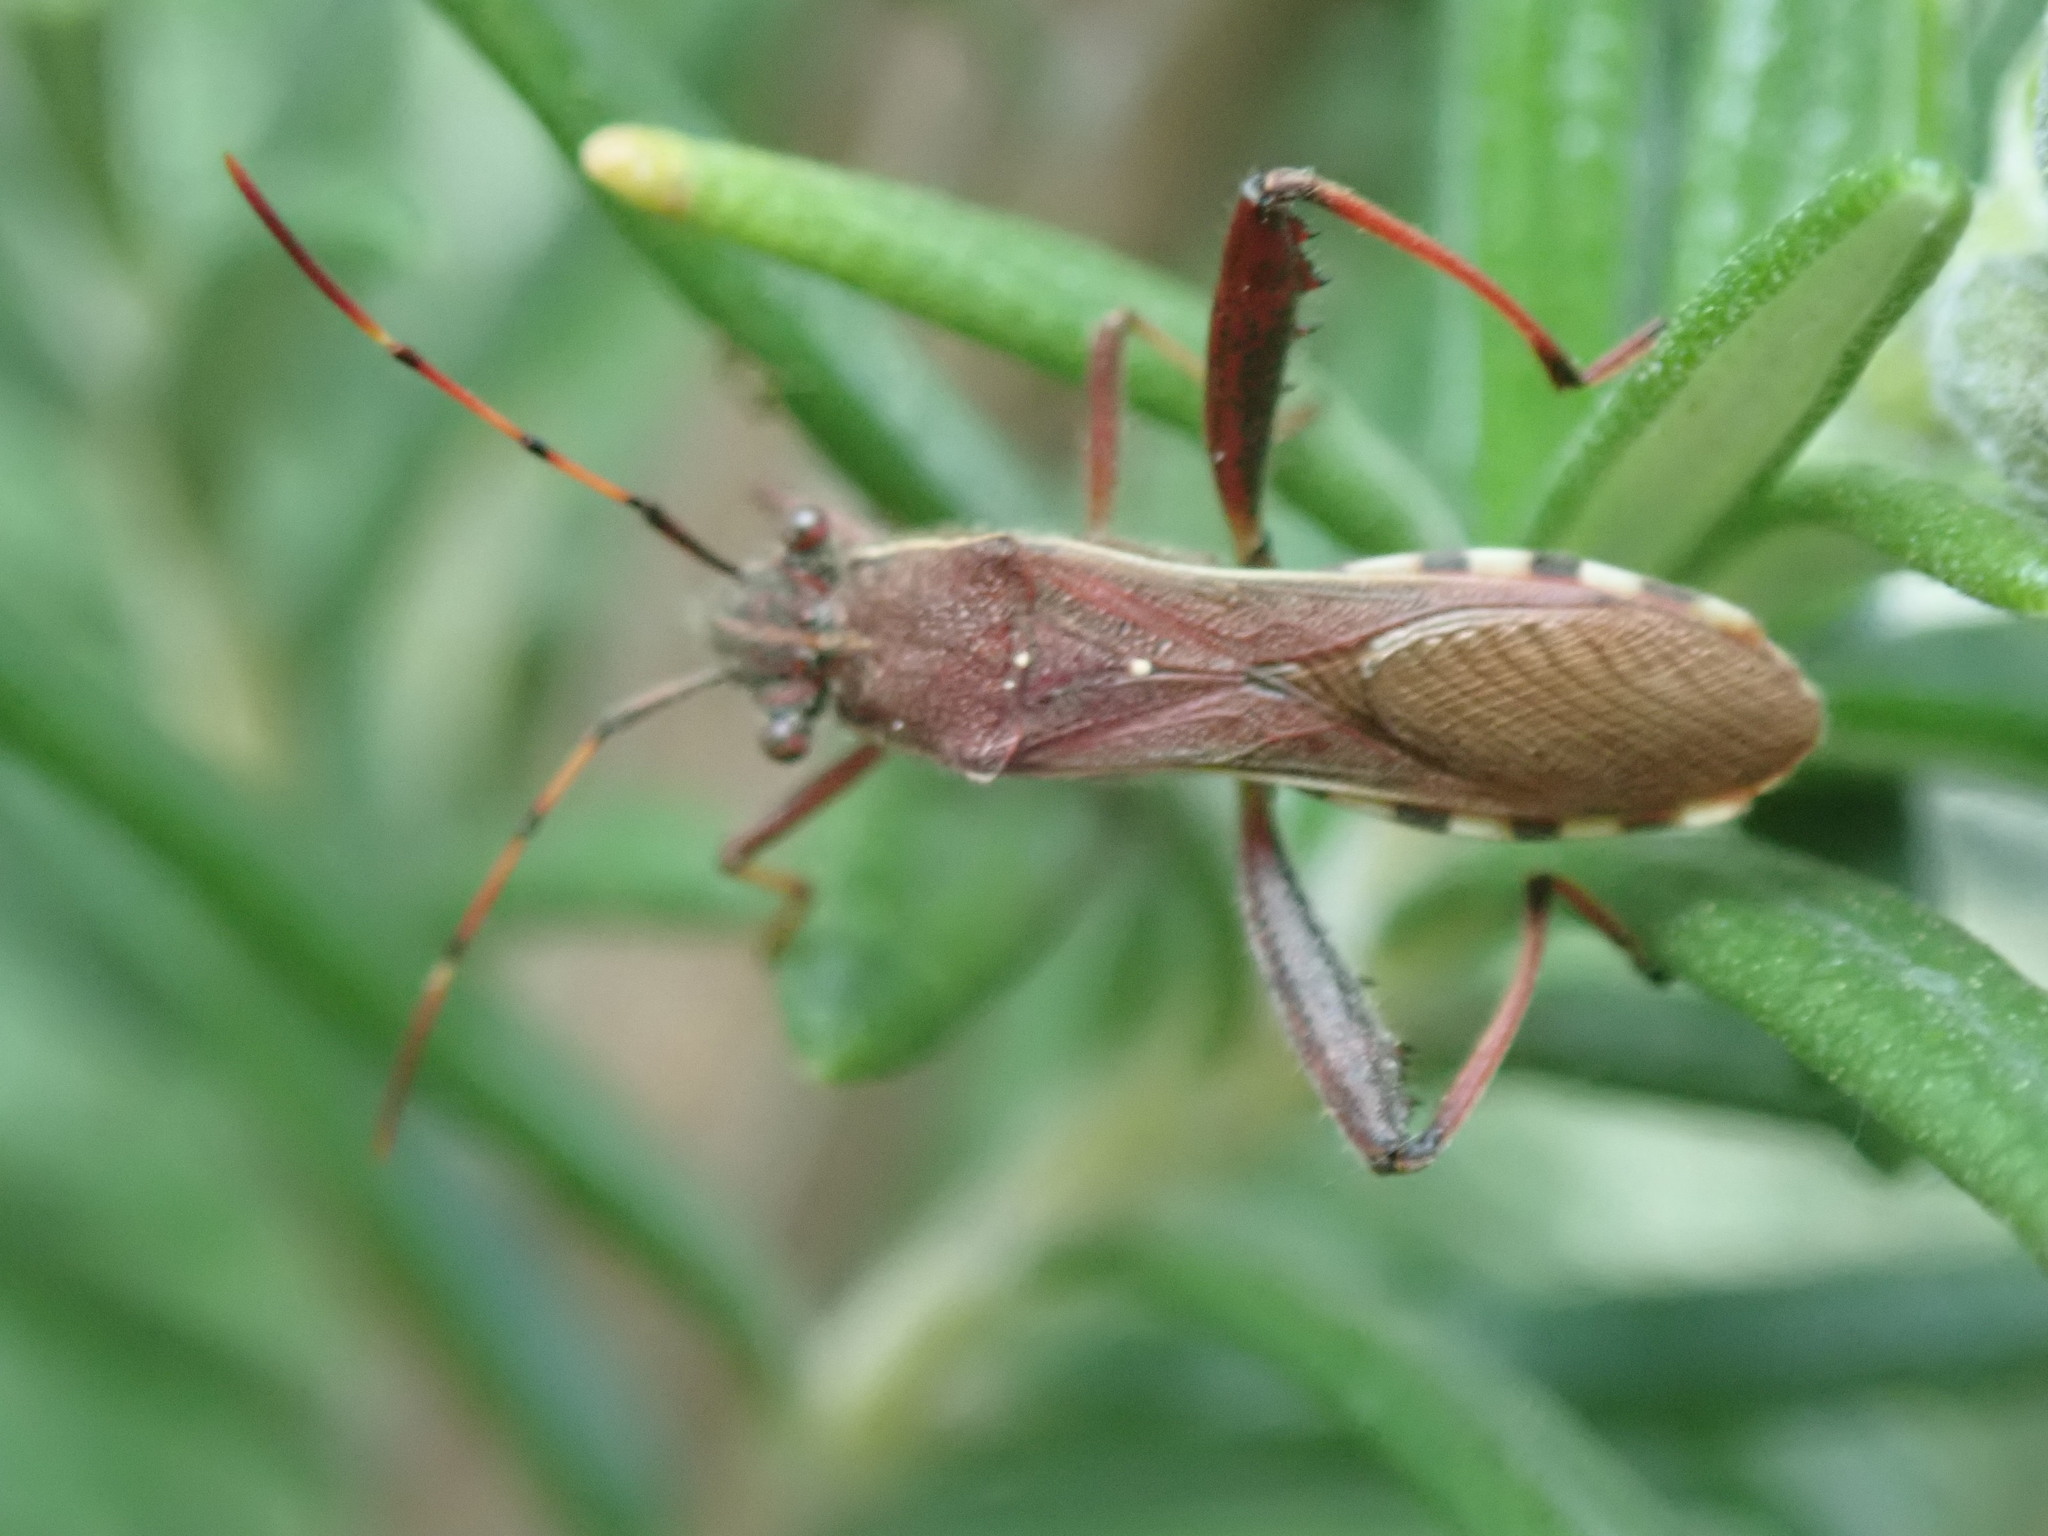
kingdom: Animalia
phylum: Arthropoda
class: Insecta
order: Hemiptera
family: Alydidae
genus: Camptopus
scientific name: Camptopus lateralis
